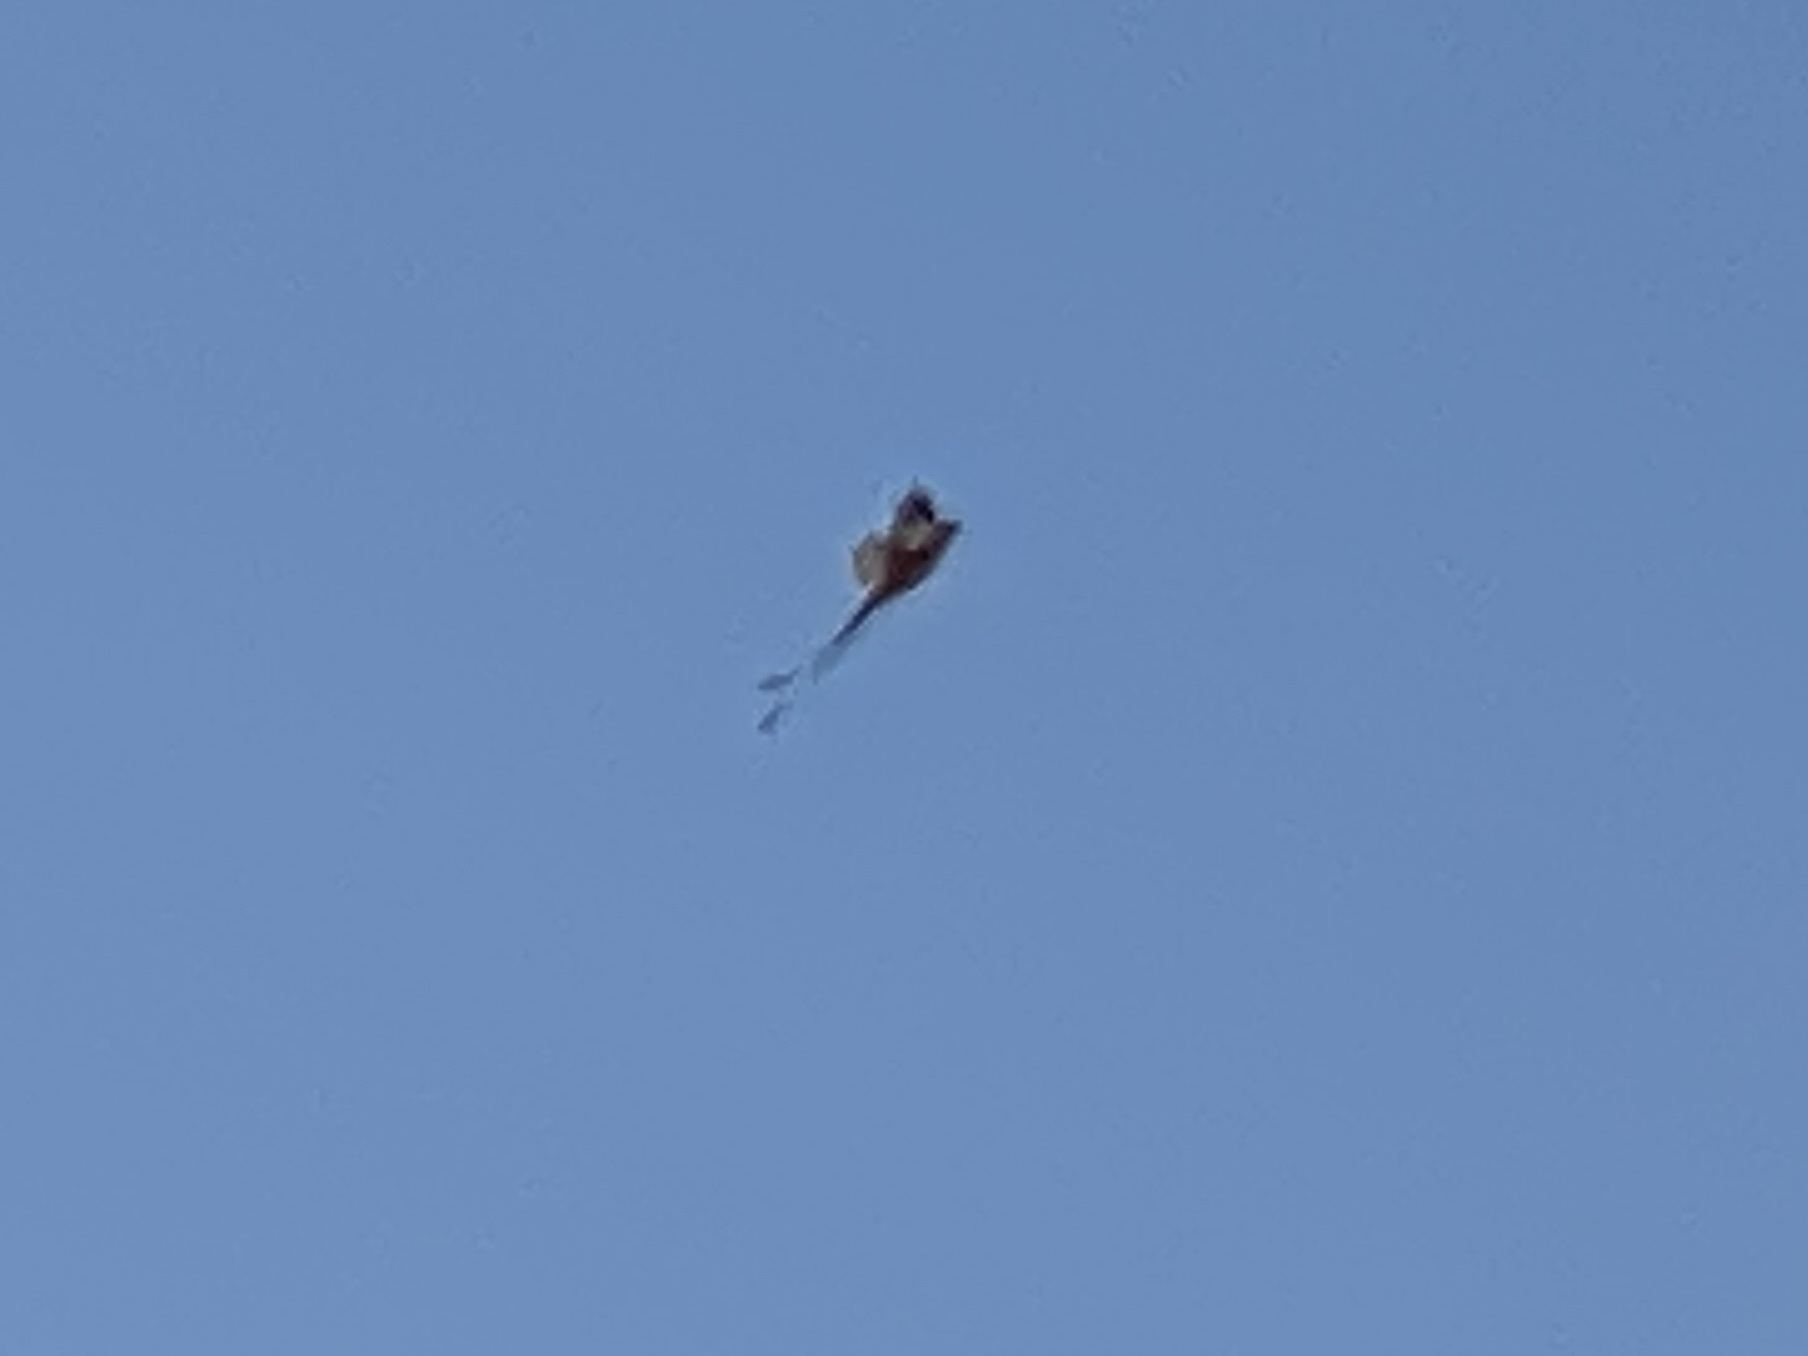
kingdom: Animalia
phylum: Chordata
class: Aves
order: Passeriformes
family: Tyrannidae
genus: Tyrannus
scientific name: Tyrannus forficatus
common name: Scissor-tailed flycatcher
